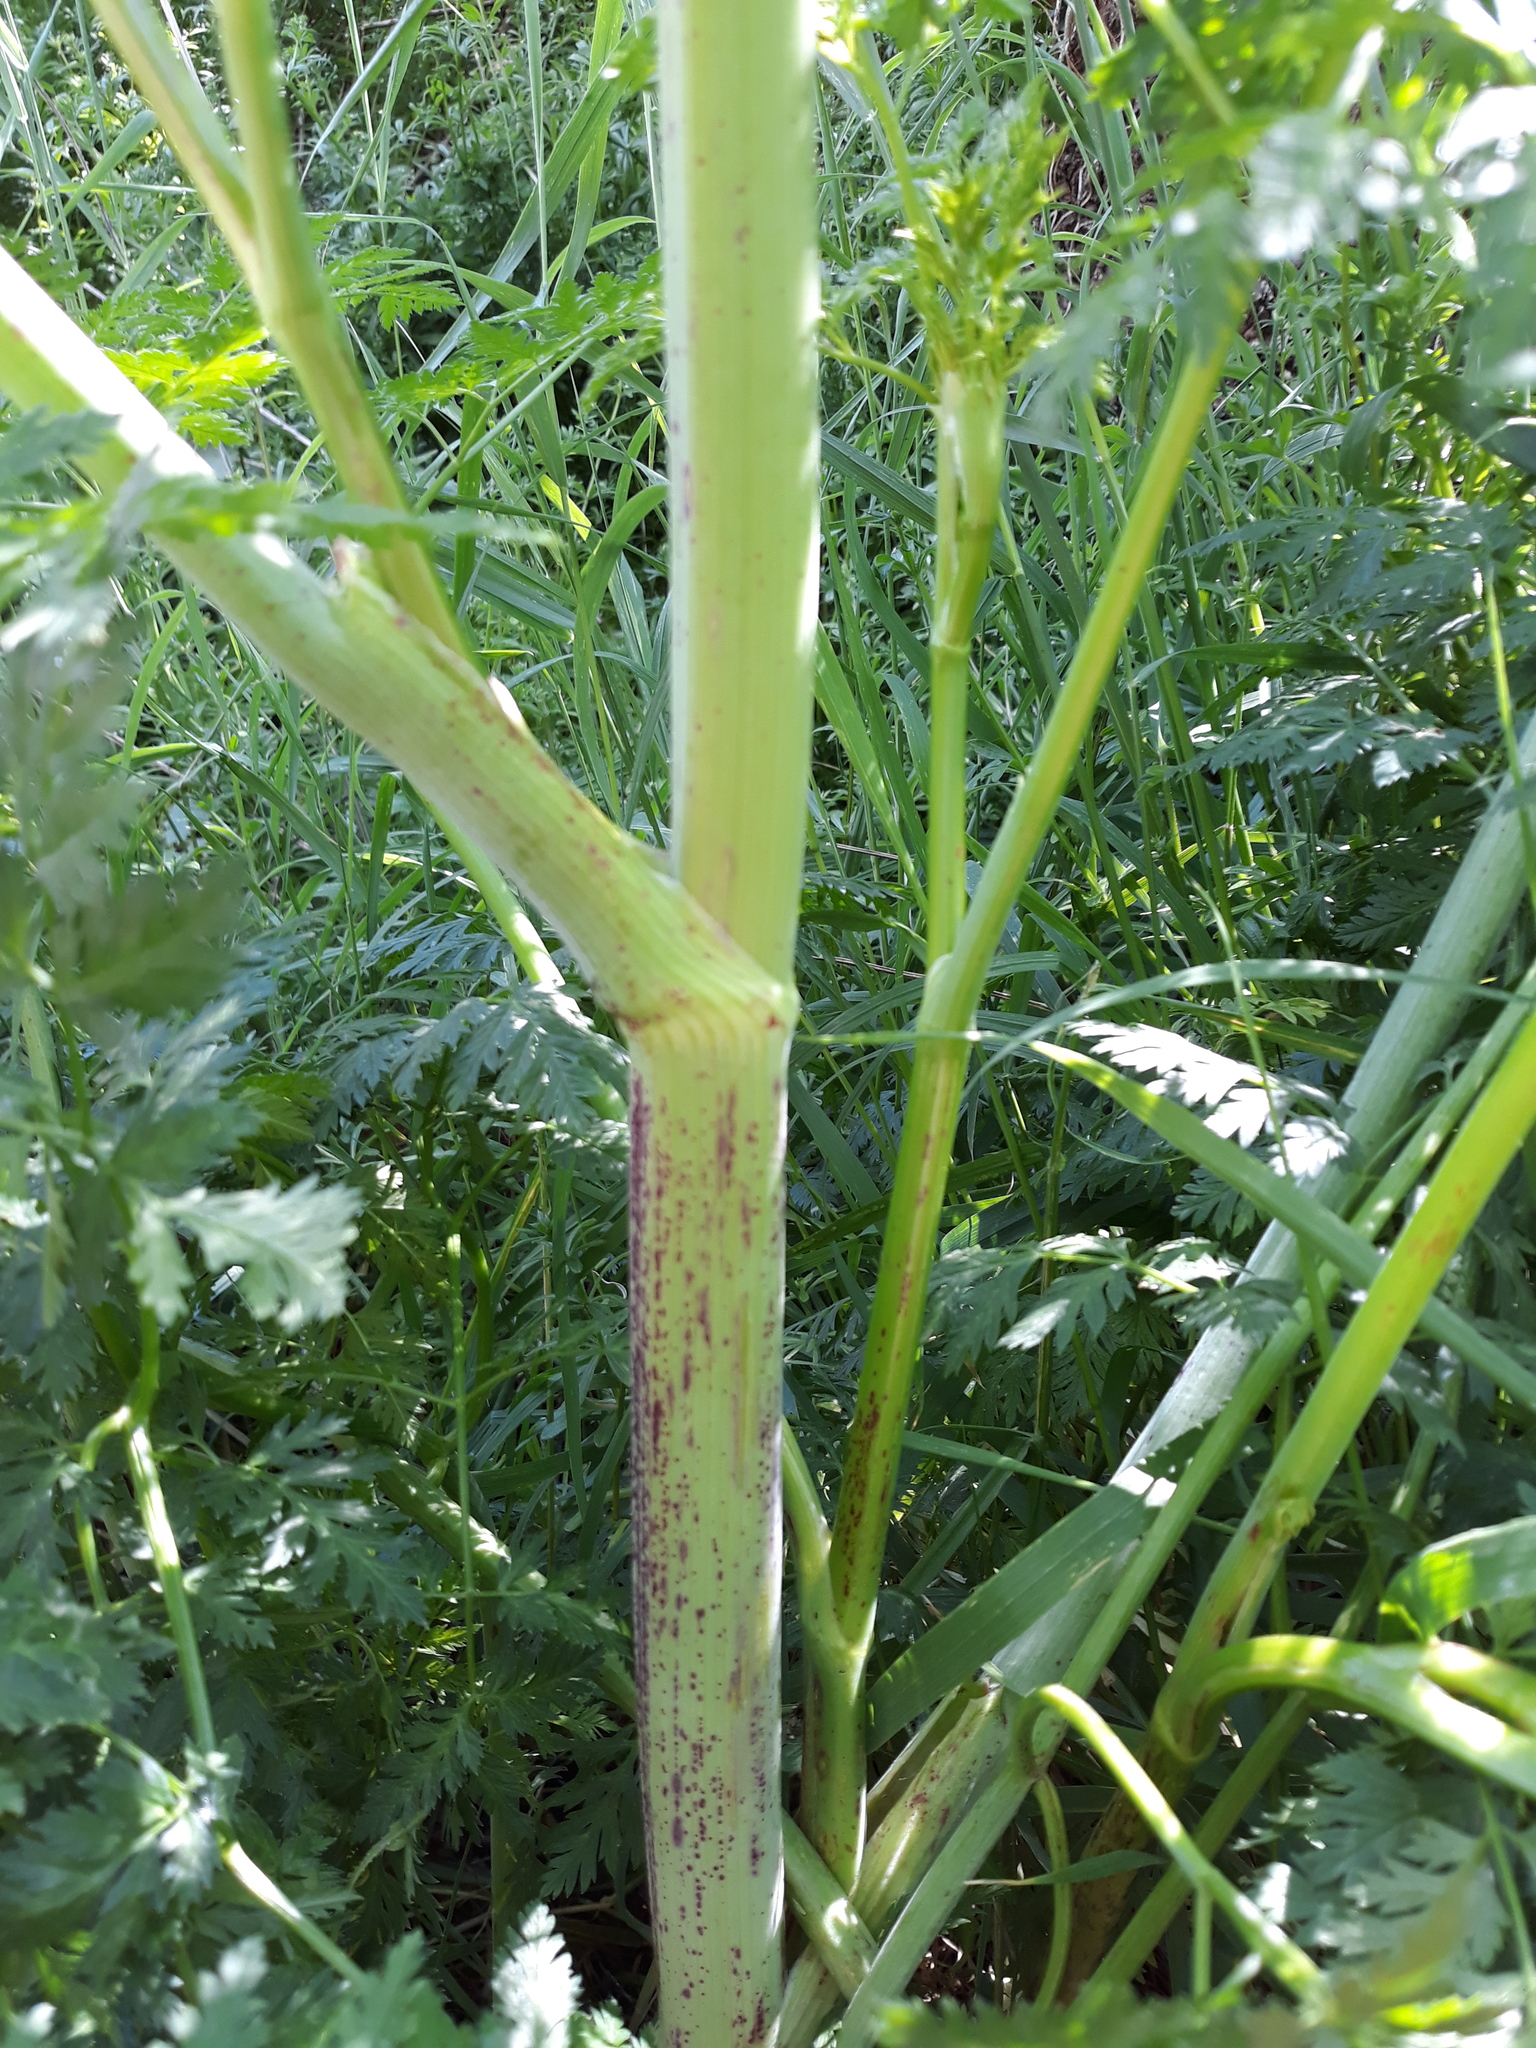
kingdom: Plantae
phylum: Tracheophyta
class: Magnoliopsida
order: Apiales
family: Apiaceae
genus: Conium
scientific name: Conium maculatum
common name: Hemlock
